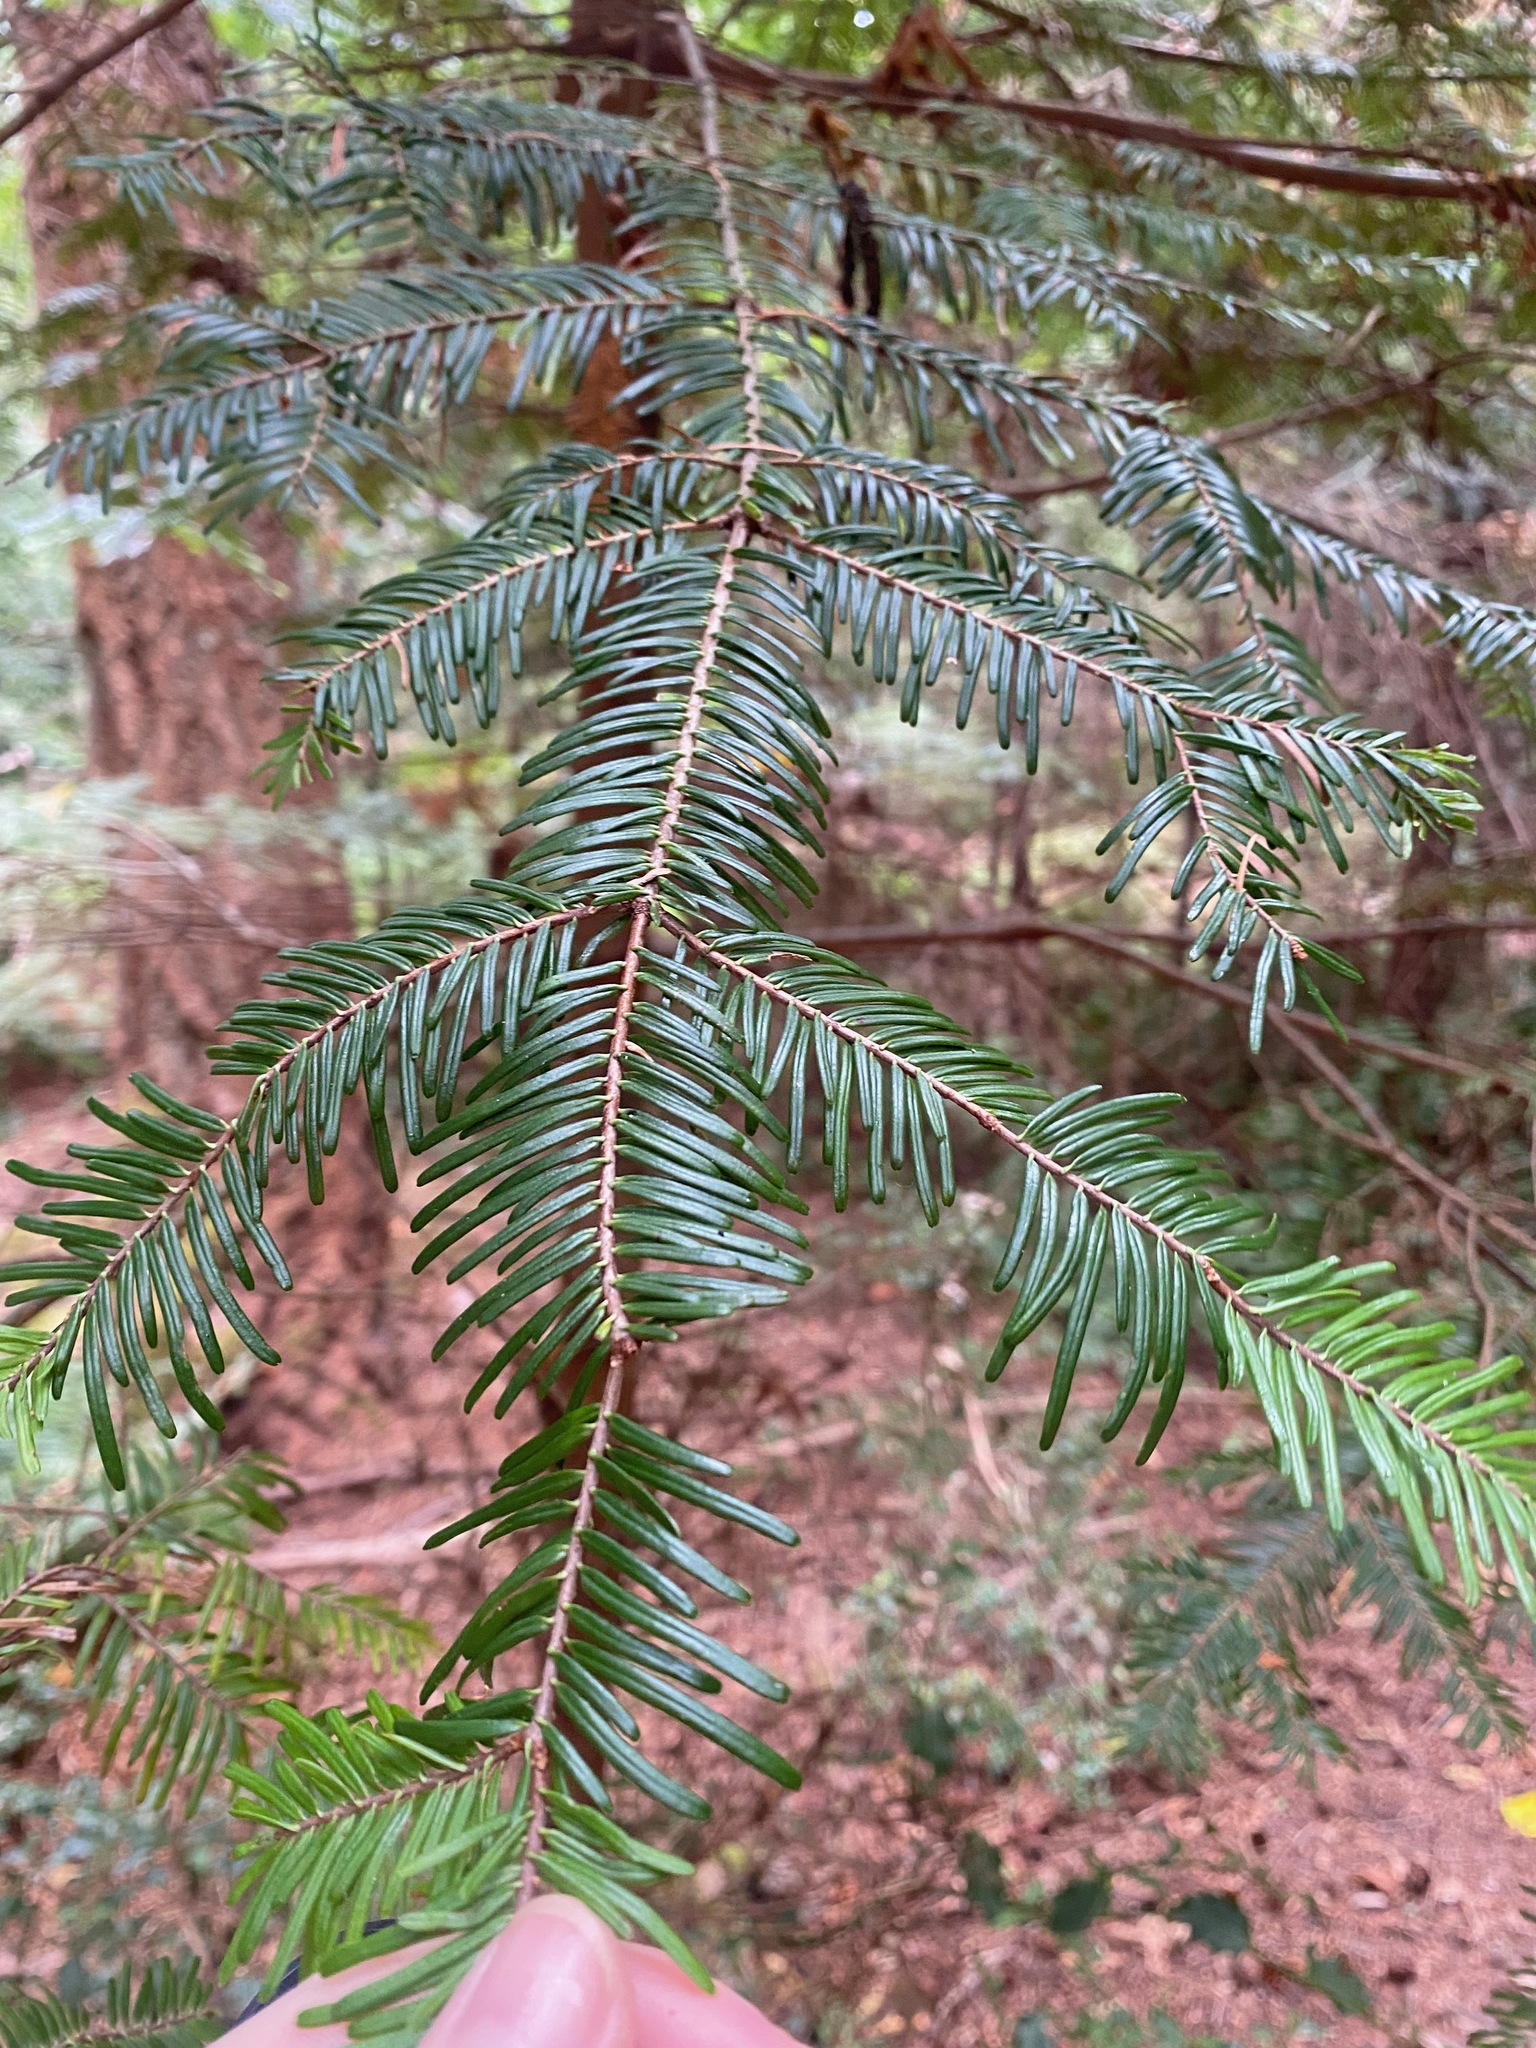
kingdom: Plantae
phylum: Tracheophyta
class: Pinopsida
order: Pinales
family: Pinaceae
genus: Abies
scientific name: Abies grandis
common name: Giant fir
